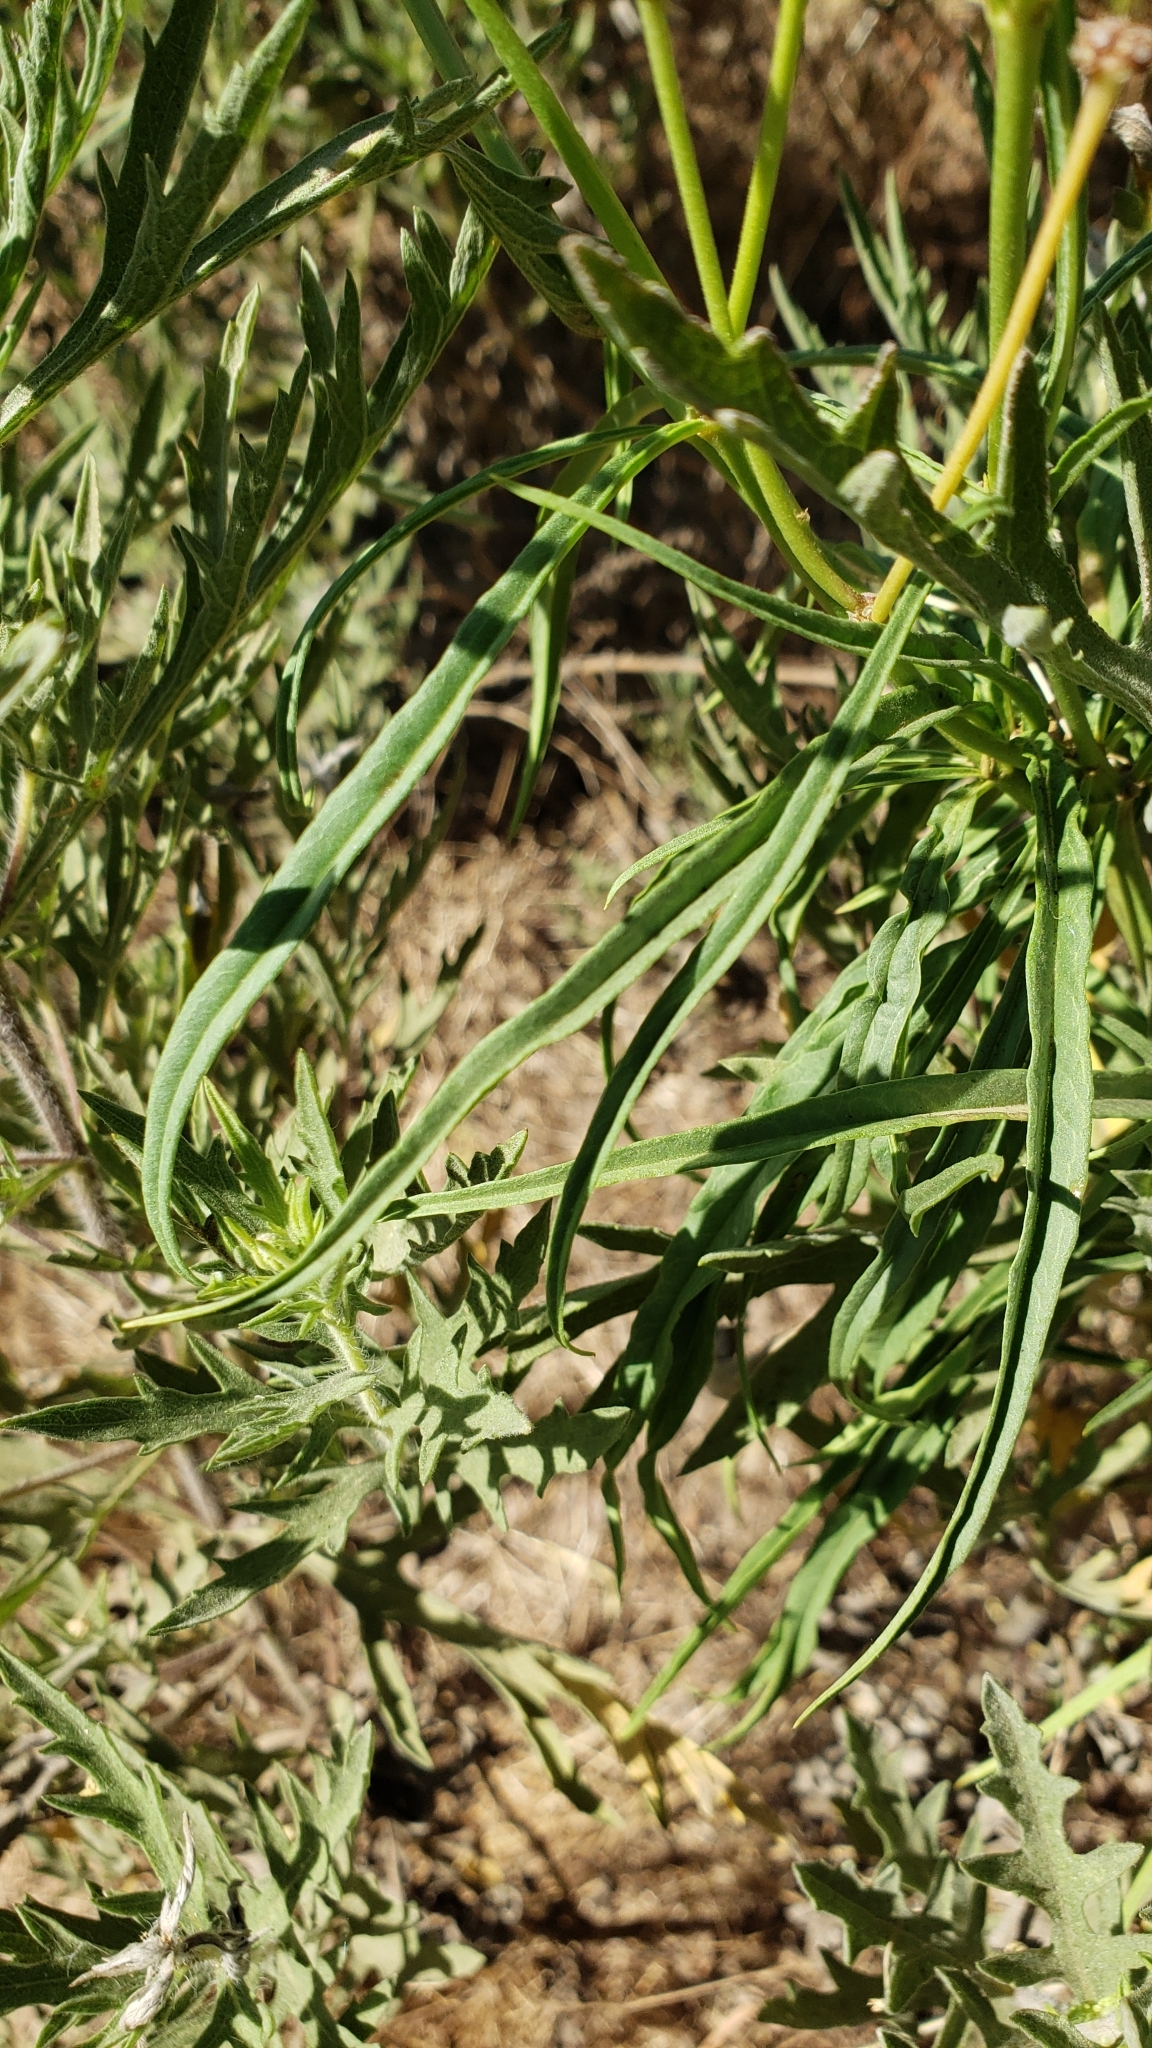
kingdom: Plantae
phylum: Tracheophyta
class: Magnoliopsida
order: Gentianales
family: Apocynaceae
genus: Asclepias
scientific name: Asclepias fascicularis
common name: Mexican milkweed
